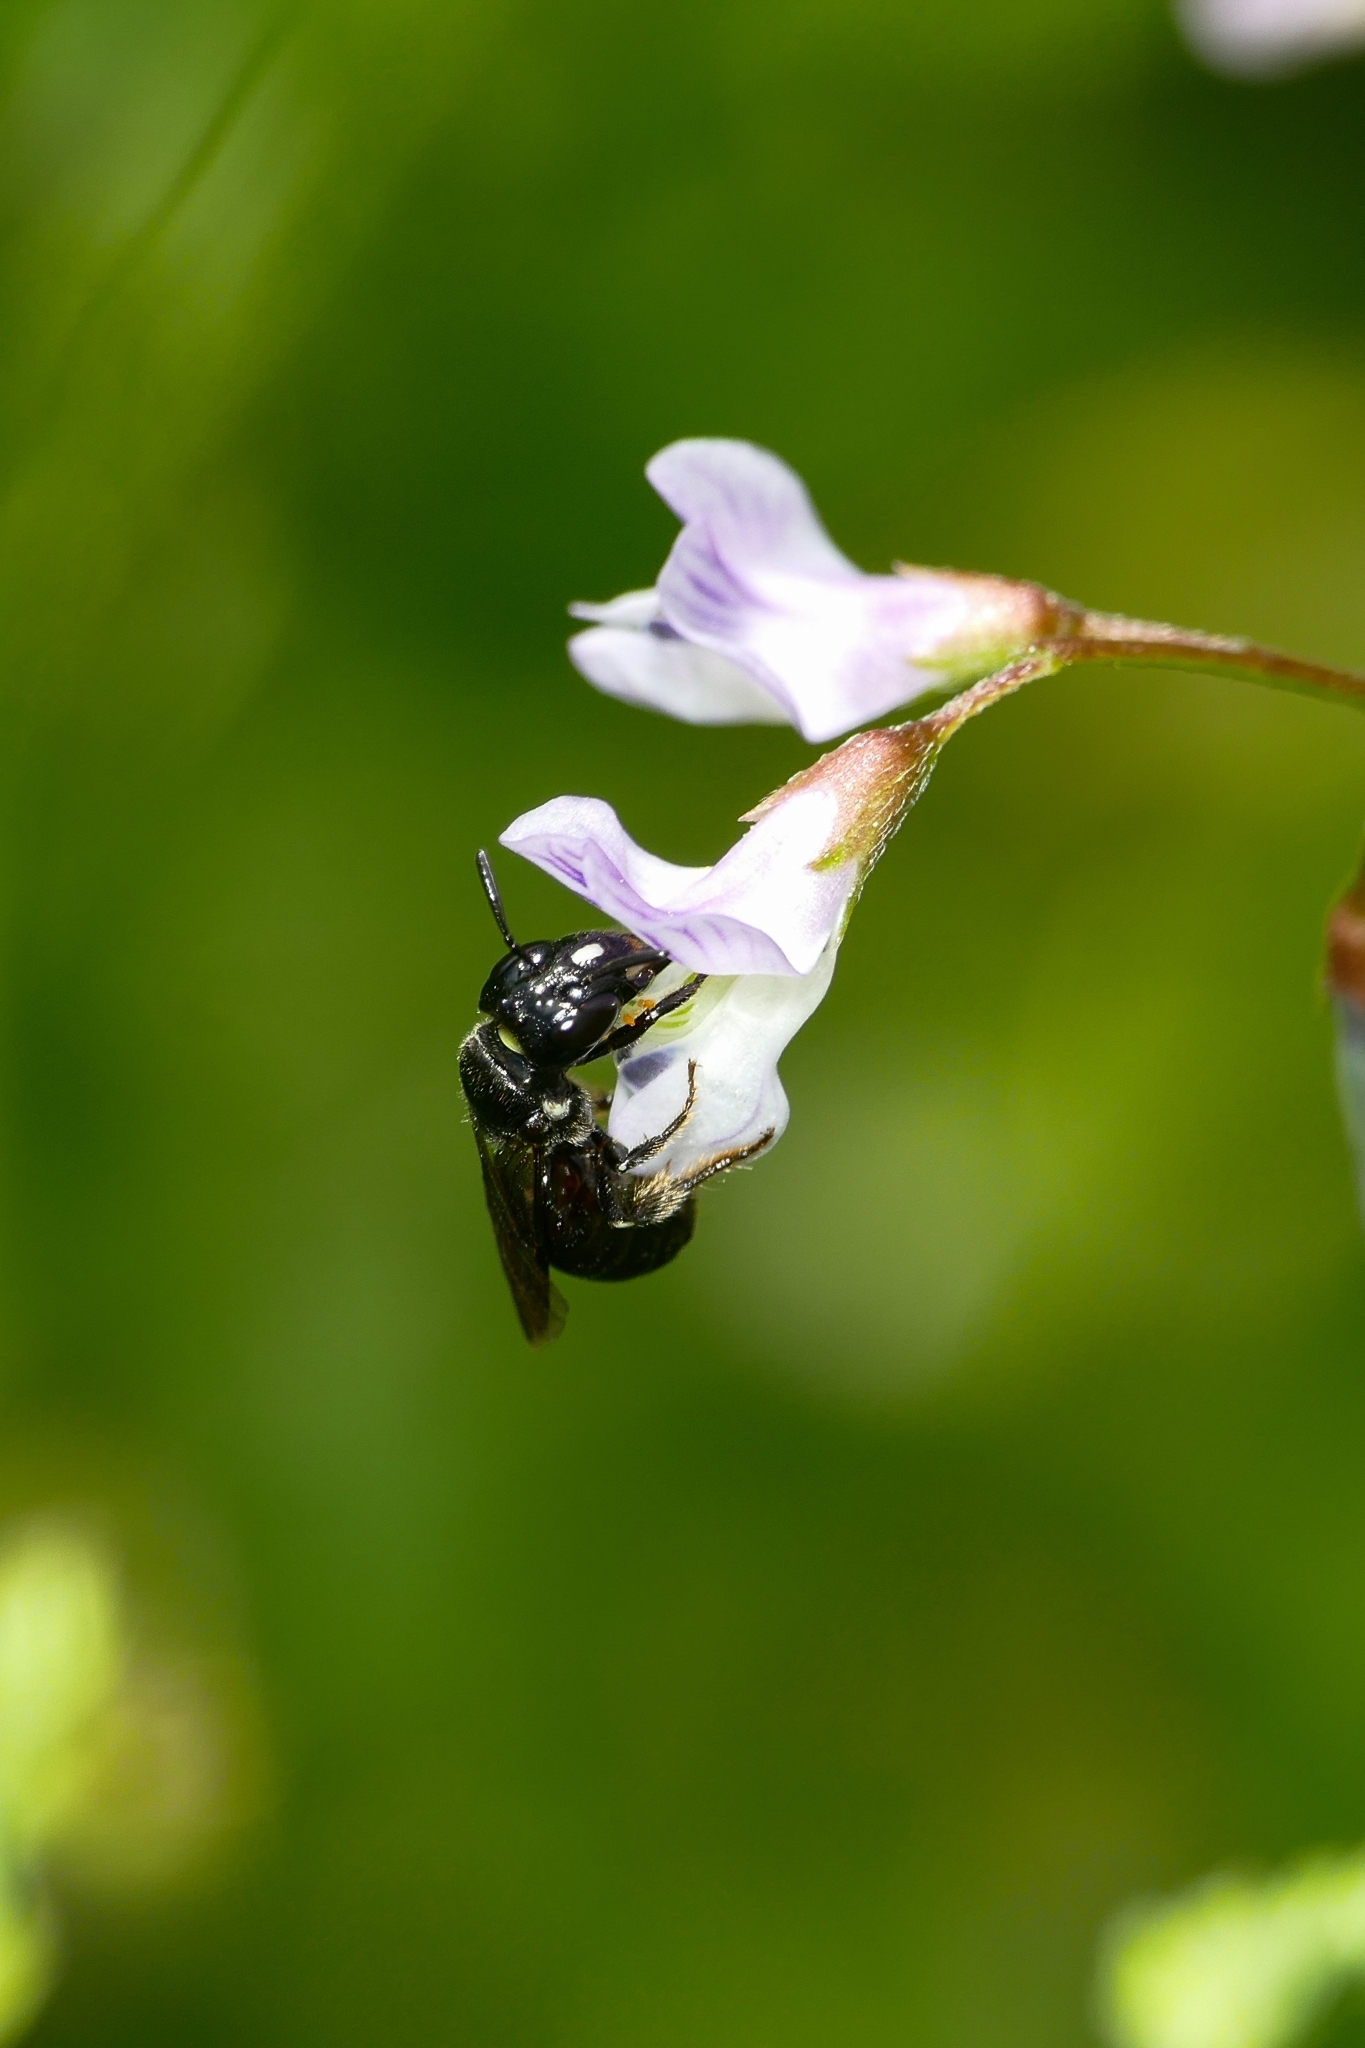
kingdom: Animalia
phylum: Arthropoda
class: Insecta
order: Hymenoptera
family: Apidae
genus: Ceratina
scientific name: Ceratina cucurbitina
